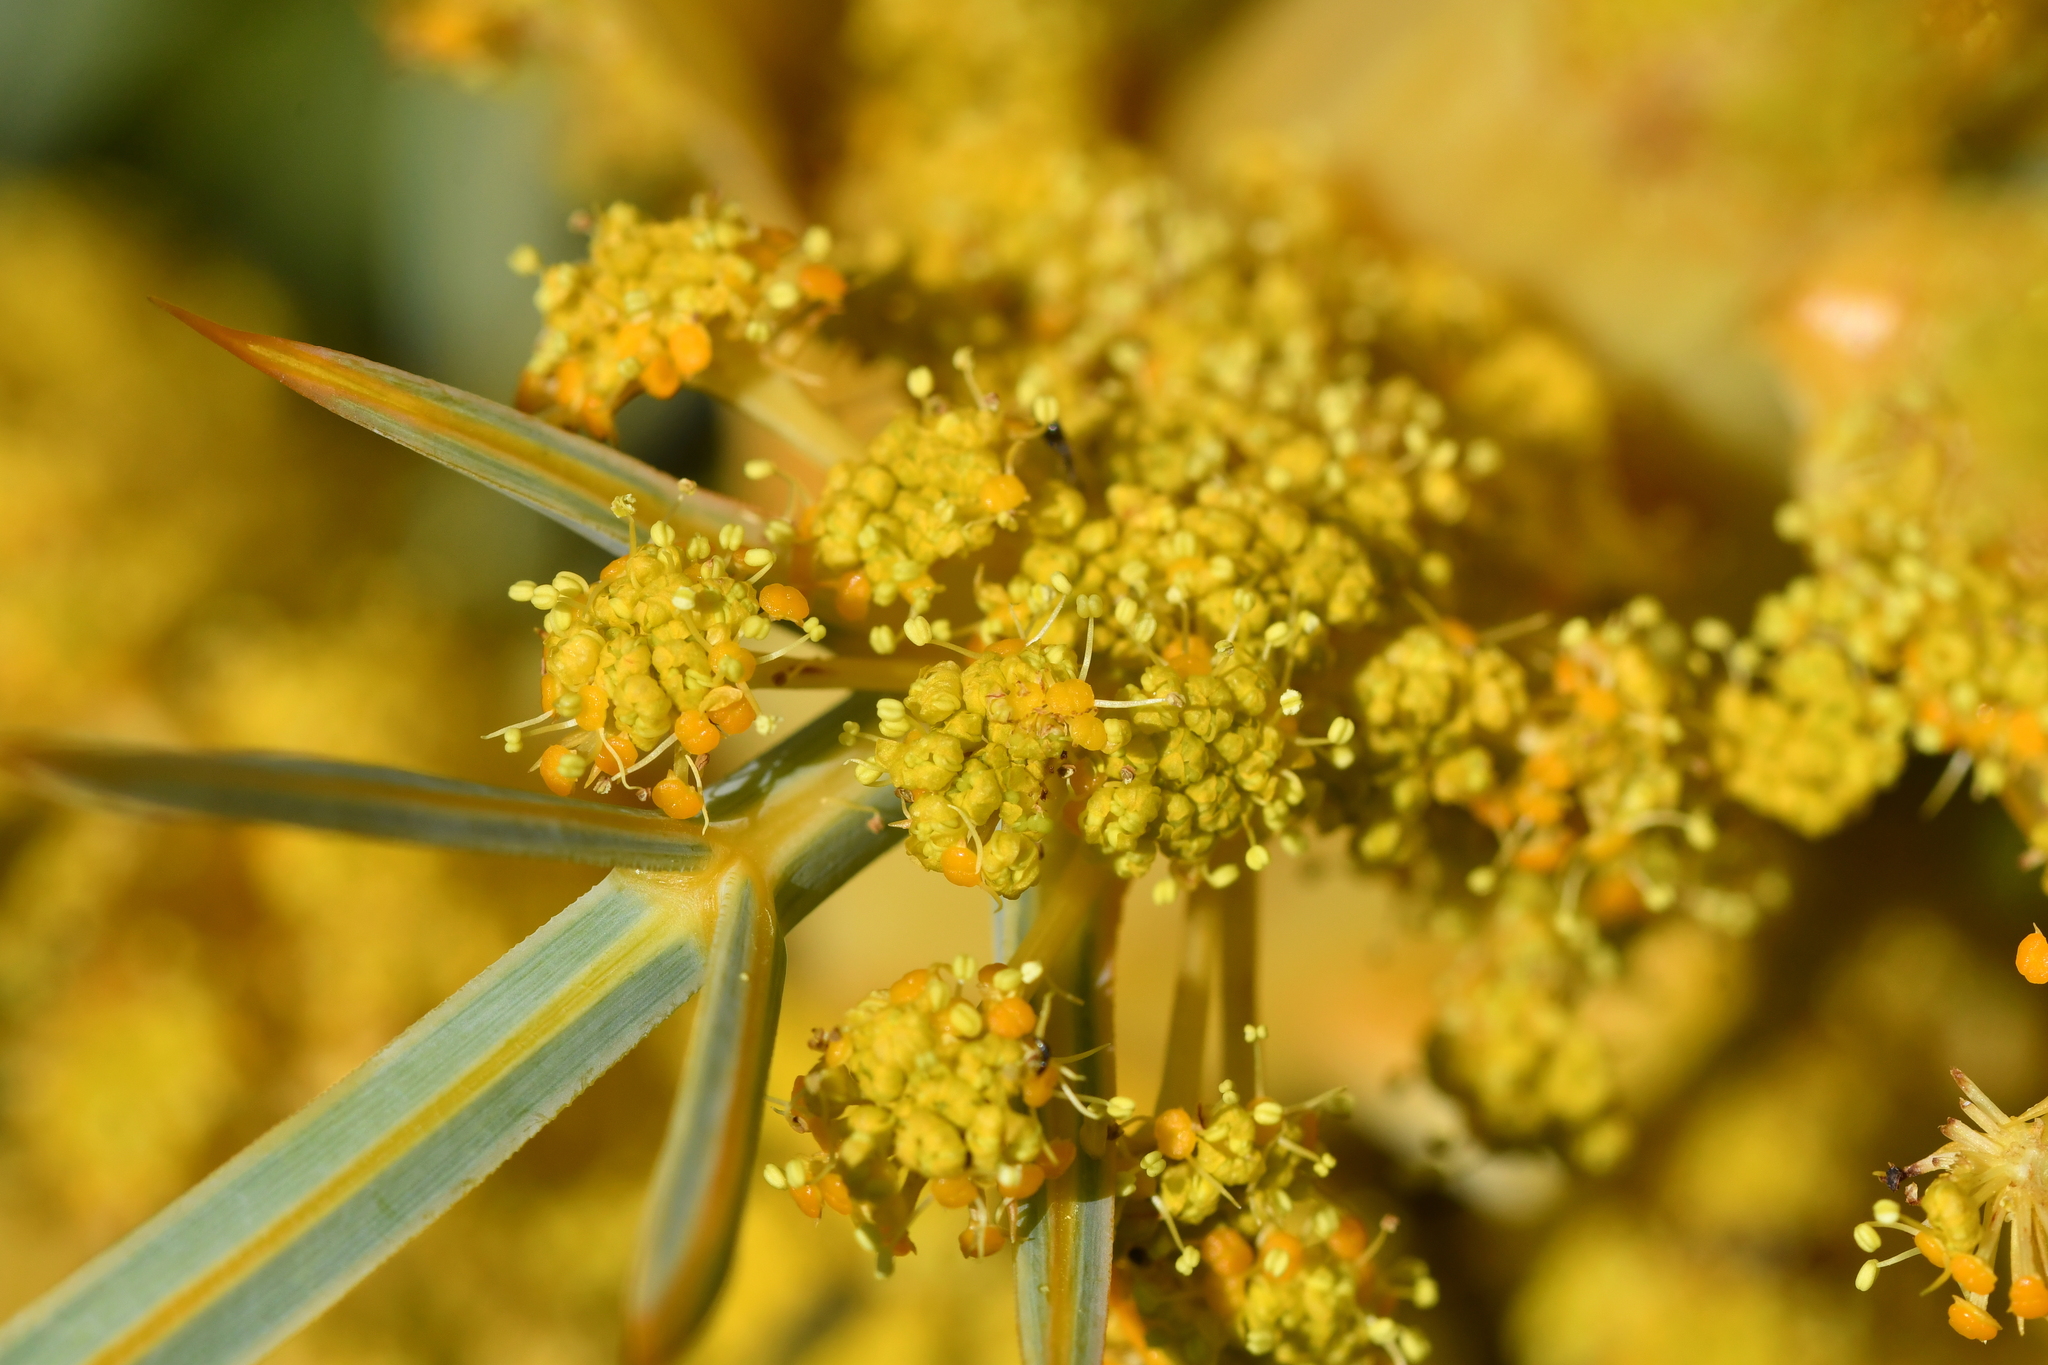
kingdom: Plantae
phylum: Tracheophyta
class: Magnoliopsida
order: Apiales
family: Apiaceae
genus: Aciphylla
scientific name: Aciphylla scott-thomsonii
